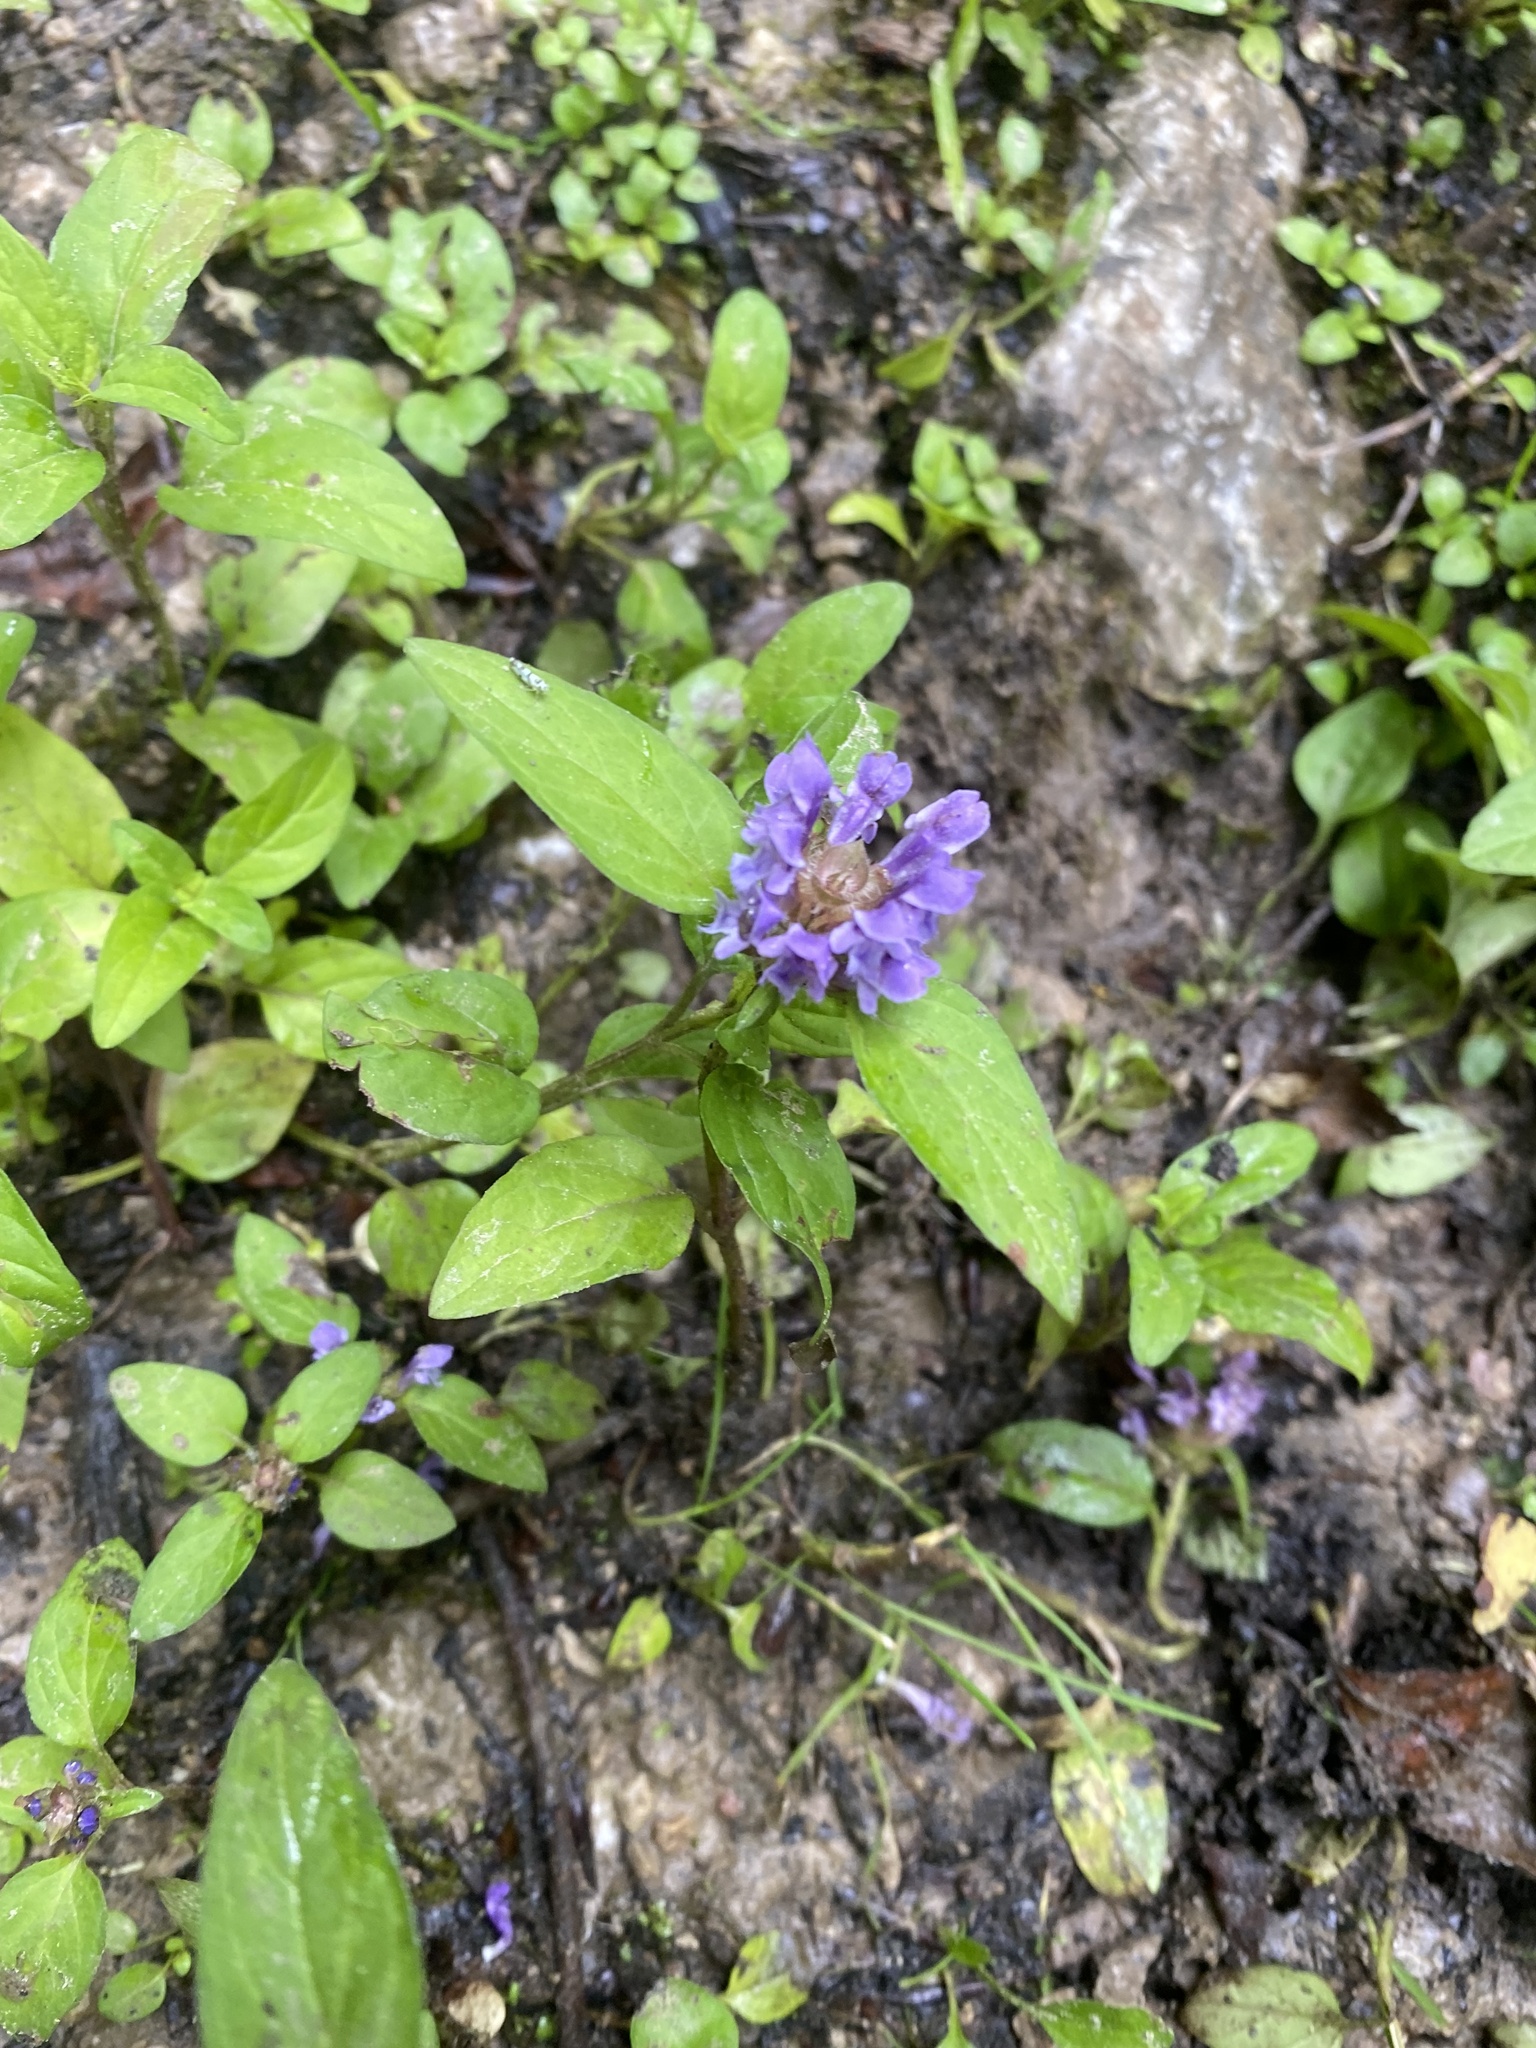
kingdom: Plantae
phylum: Tracheophyta
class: Magnoliopsida
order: Lamiales
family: Lamiaceae
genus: Prunella
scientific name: Prunella vulgaris
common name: Heal-all
